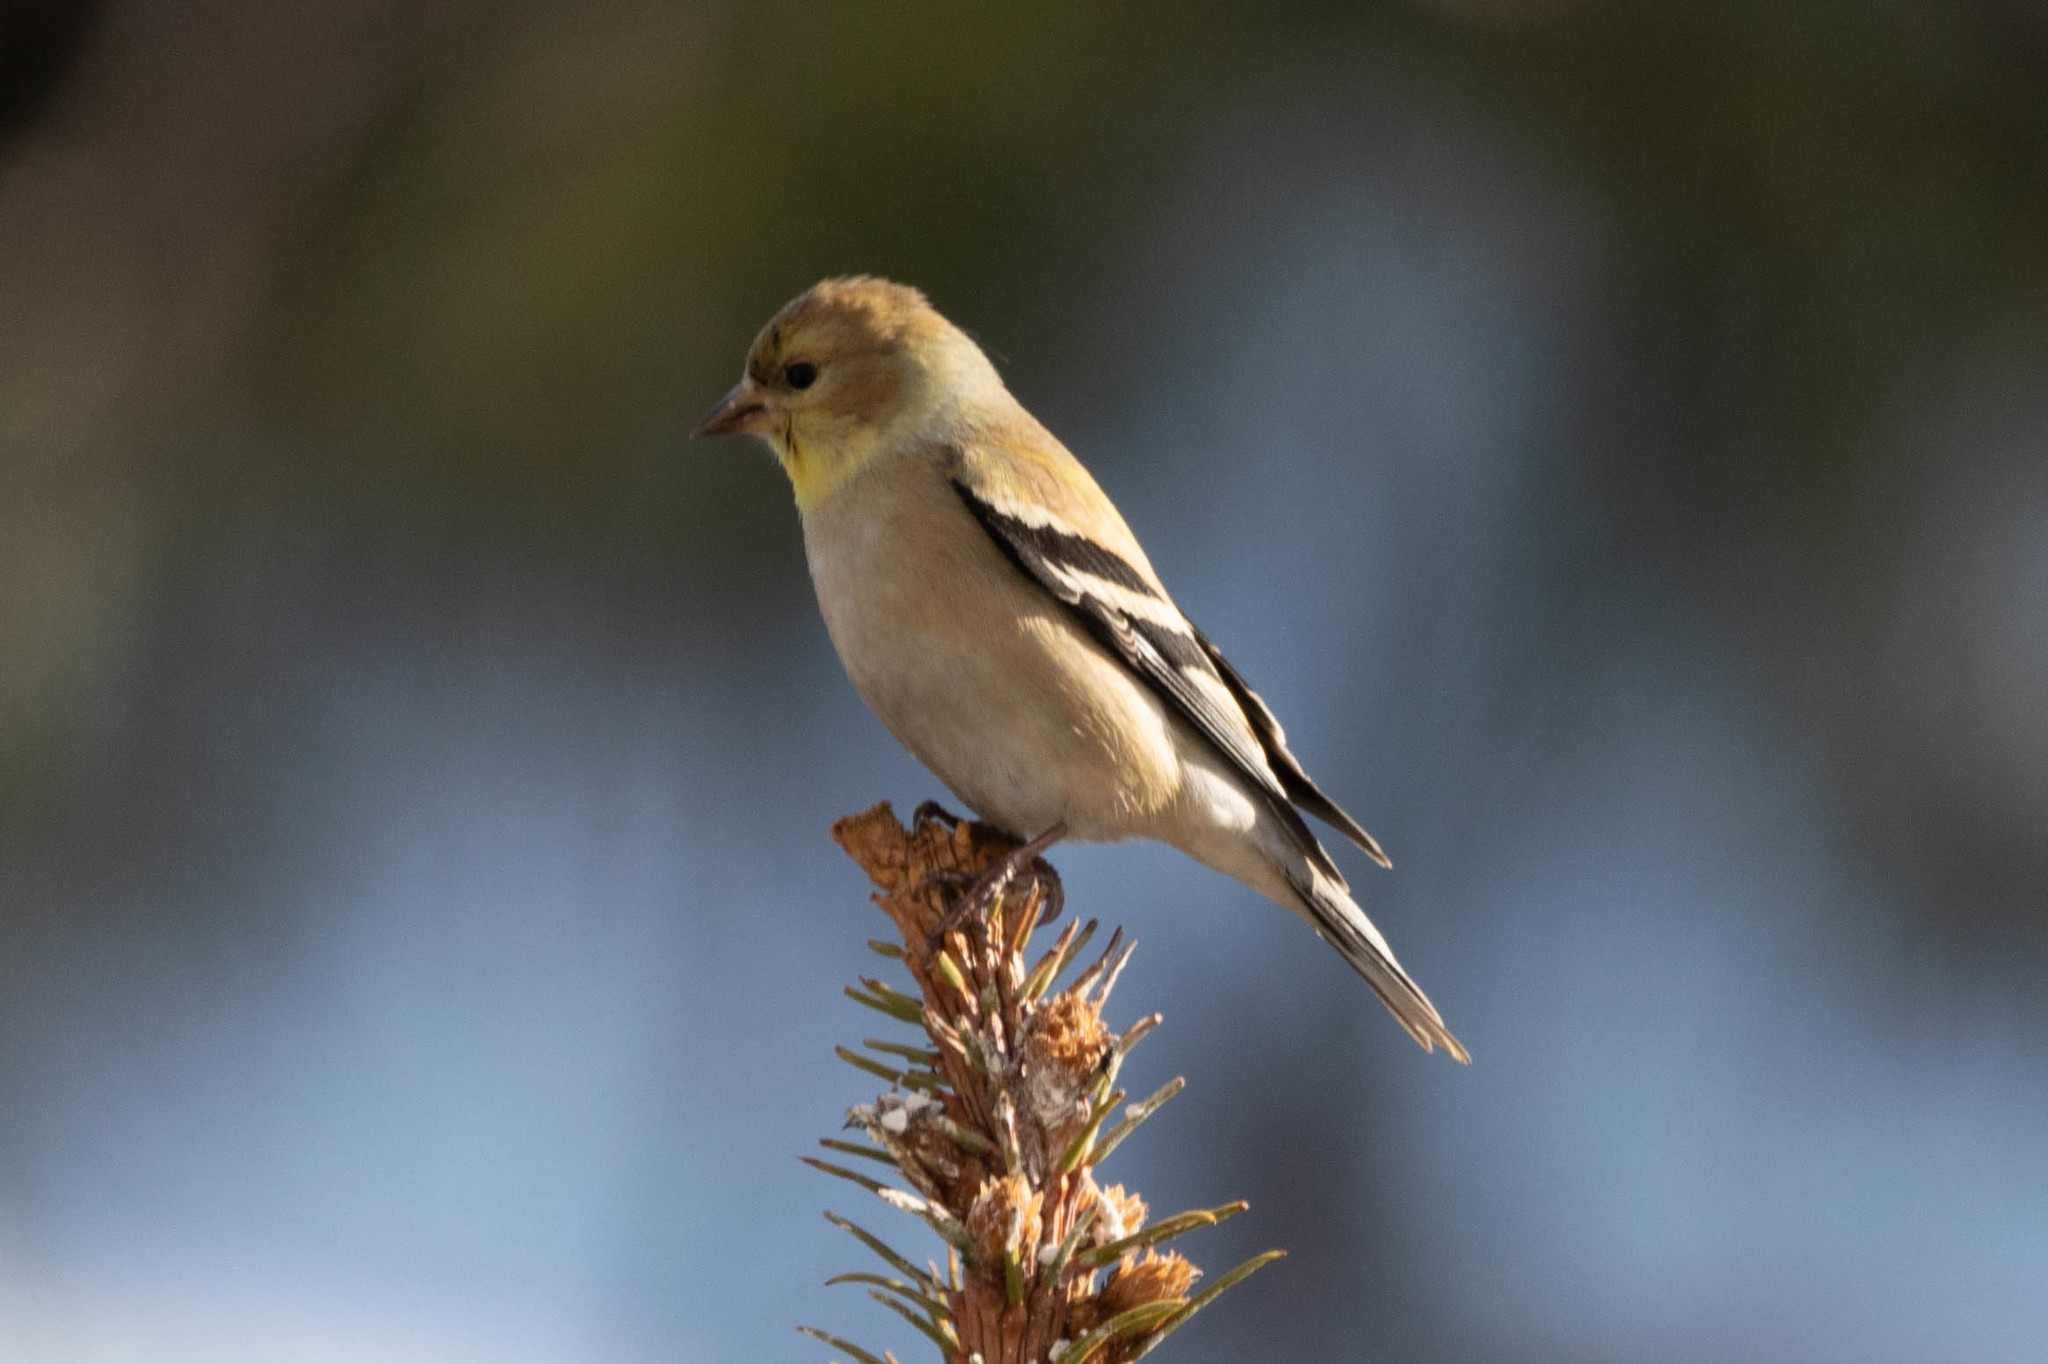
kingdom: Animalia
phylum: Chordata
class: Aves
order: Passeriformes
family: Fringillidae
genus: Spinus
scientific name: Spinus tristis
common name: American goldfinch
